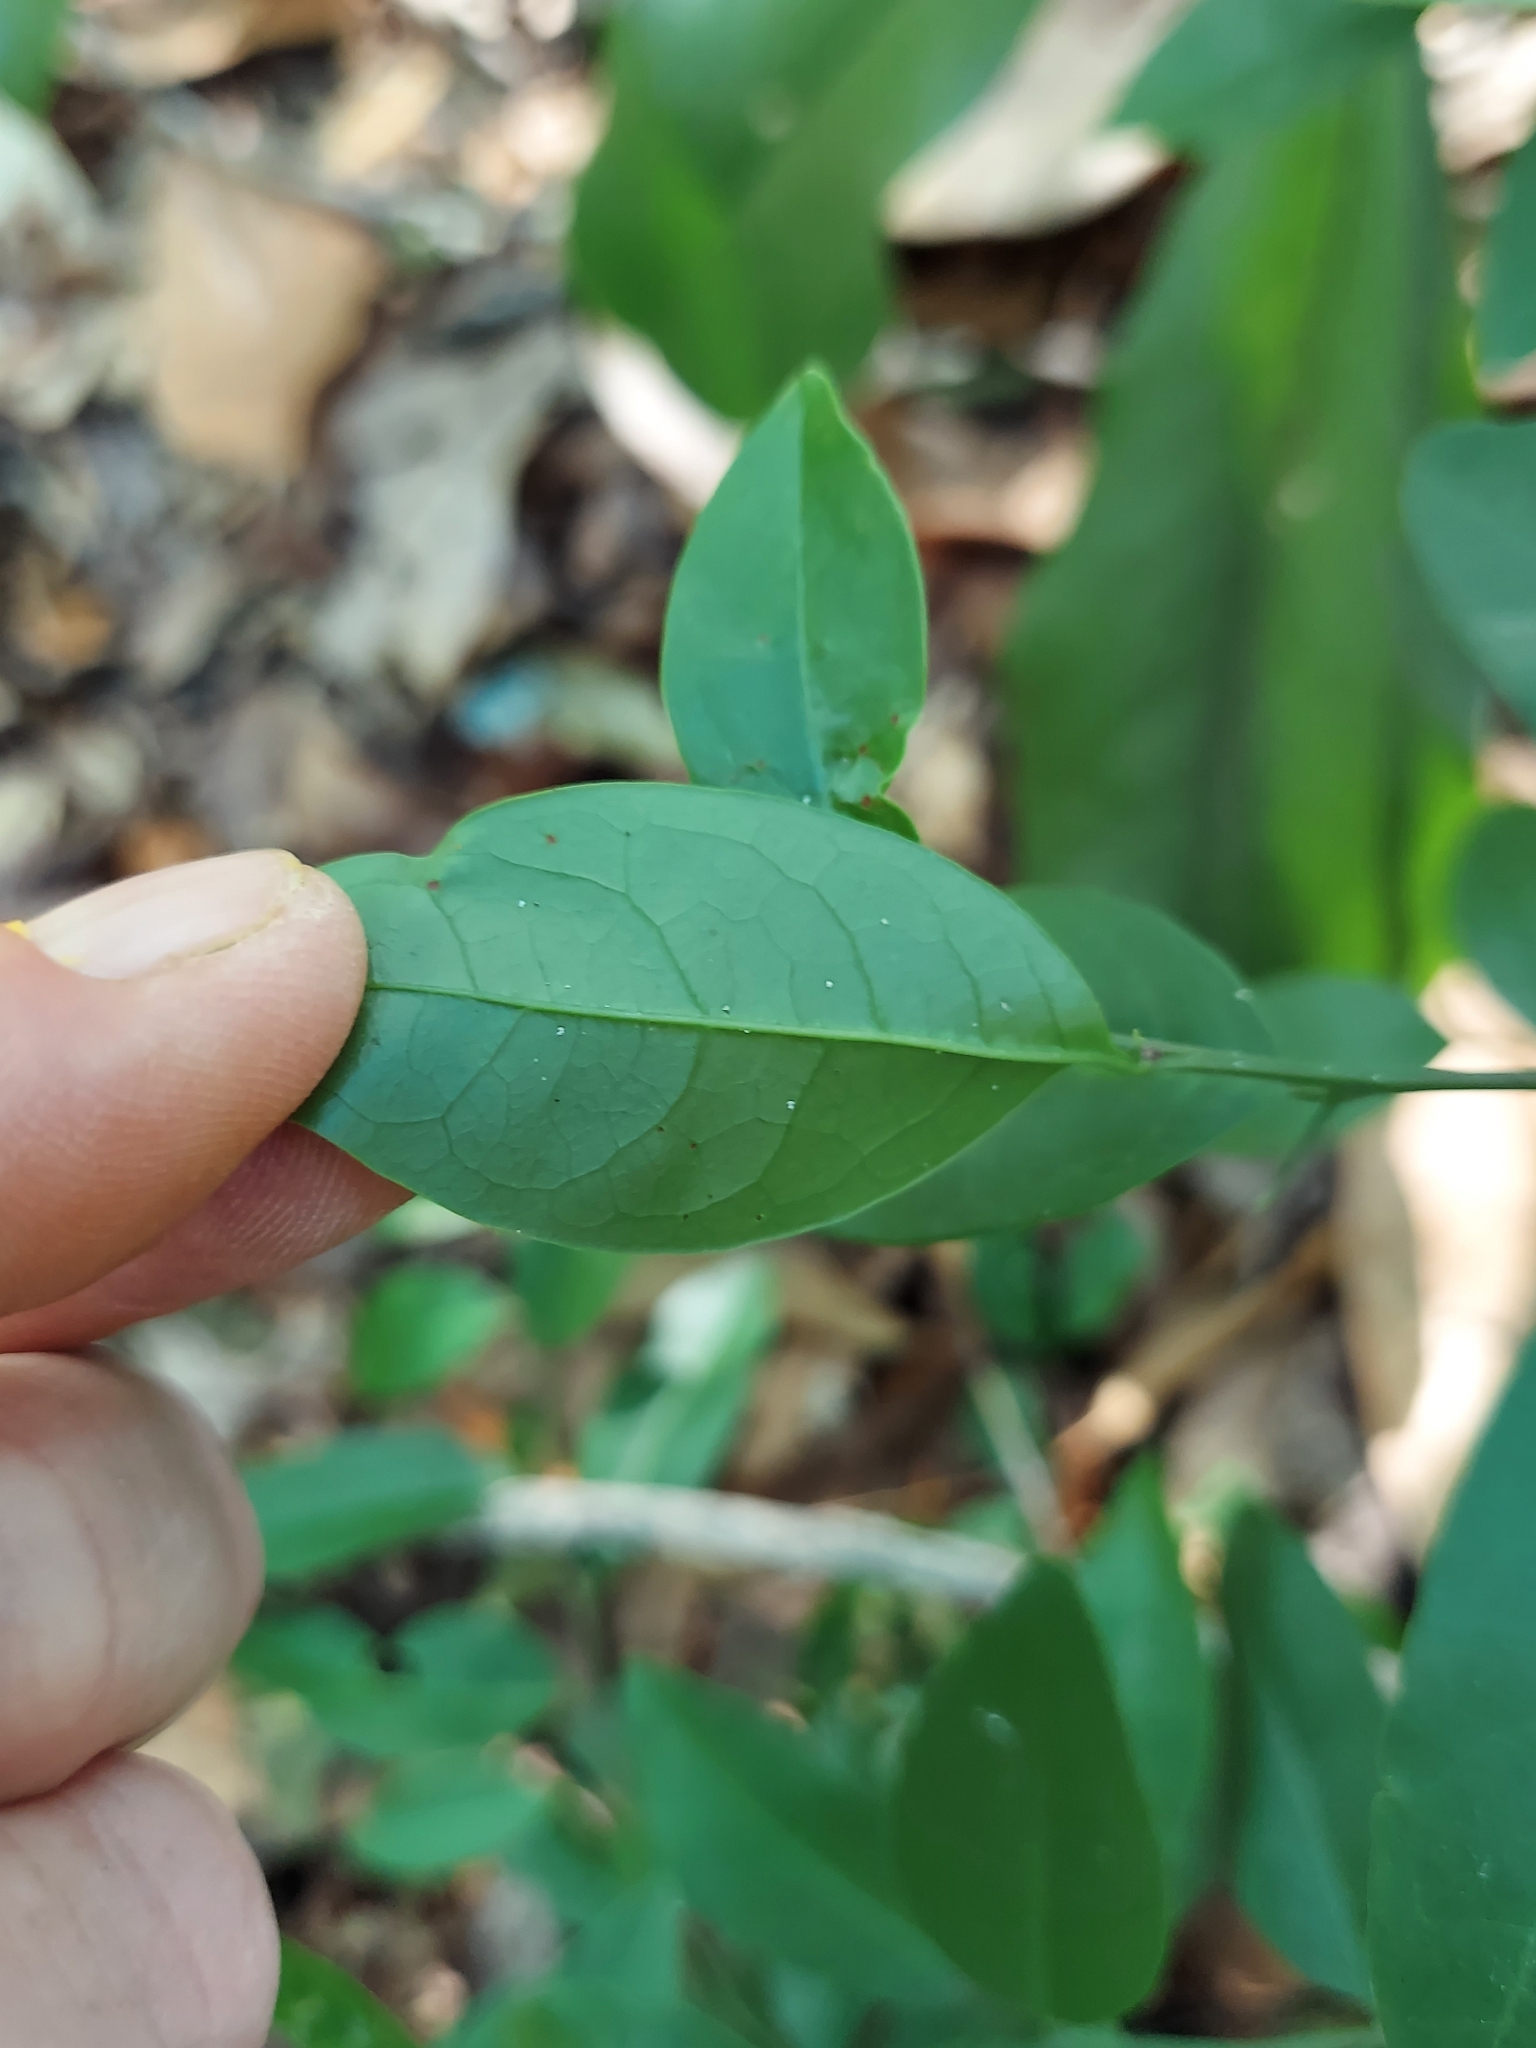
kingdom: Plantae
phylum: Tracheophyta
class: Magnoliopsida
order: Santalales
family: Ximeniaceae
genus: Ximenia
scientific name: Ximenia americana
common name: Tallowwood
